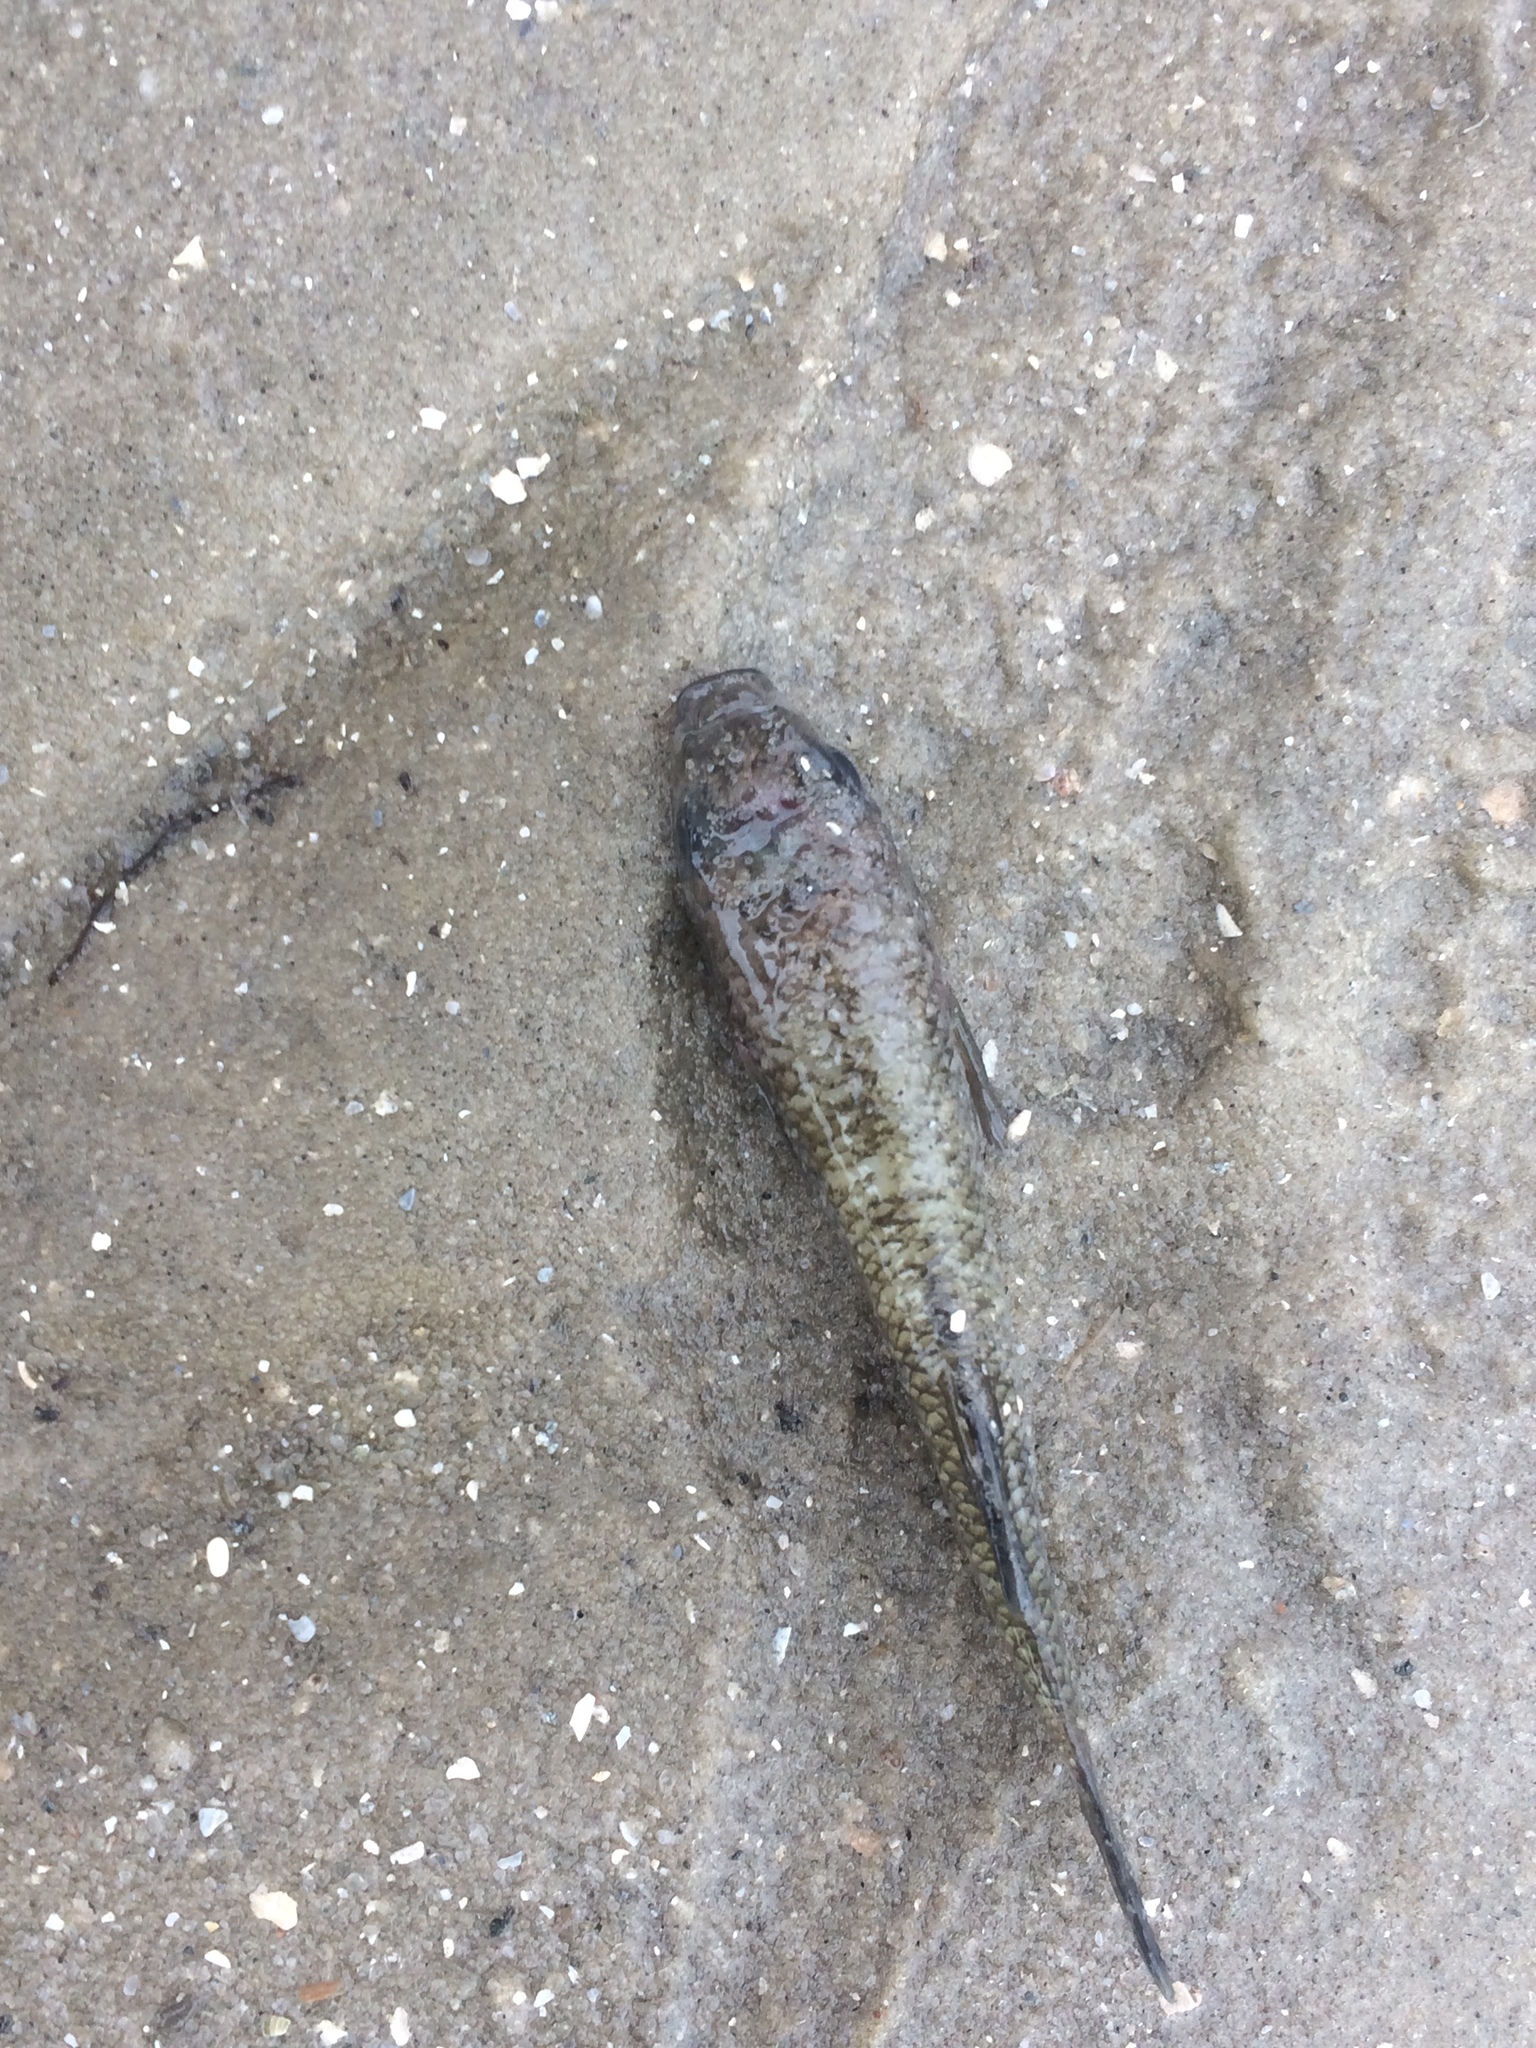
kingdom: Animalia
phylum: Chordata
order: Cyprinodontiformes
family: Fundulidae
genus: Fundulus
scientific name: Fundulus heteroclitus
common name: Mummichog
